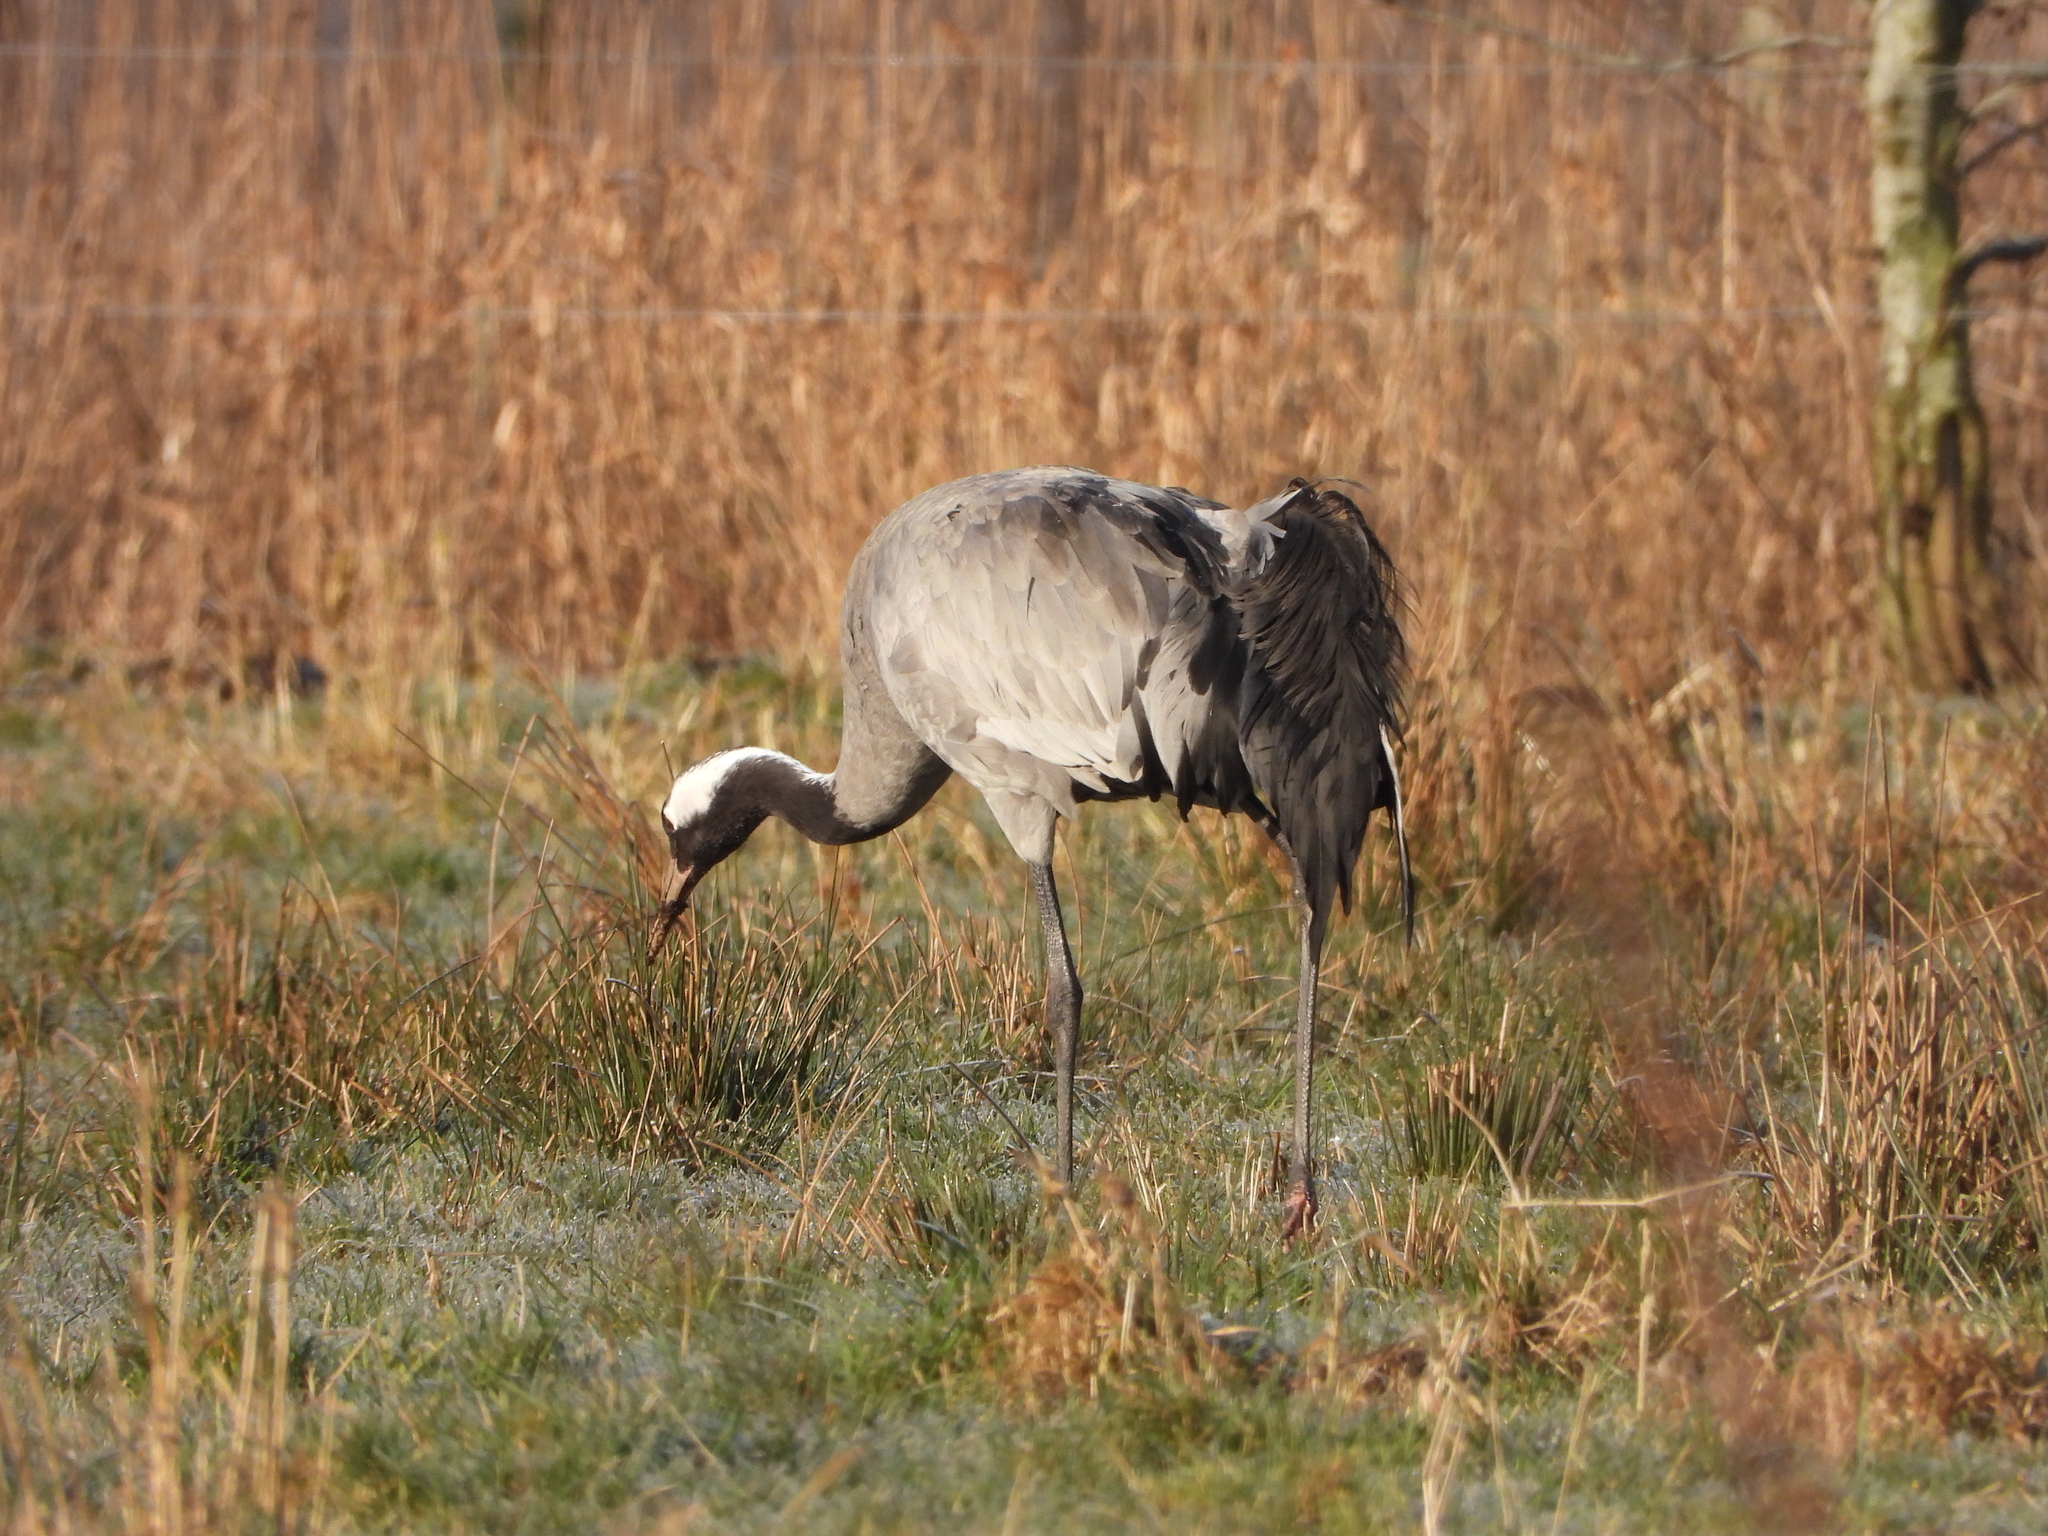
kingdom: Animalia
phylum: Chordata
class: Aves
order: Gruiformes
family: Gruidae
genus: Grus
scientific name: Grus grus
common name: Common crane
